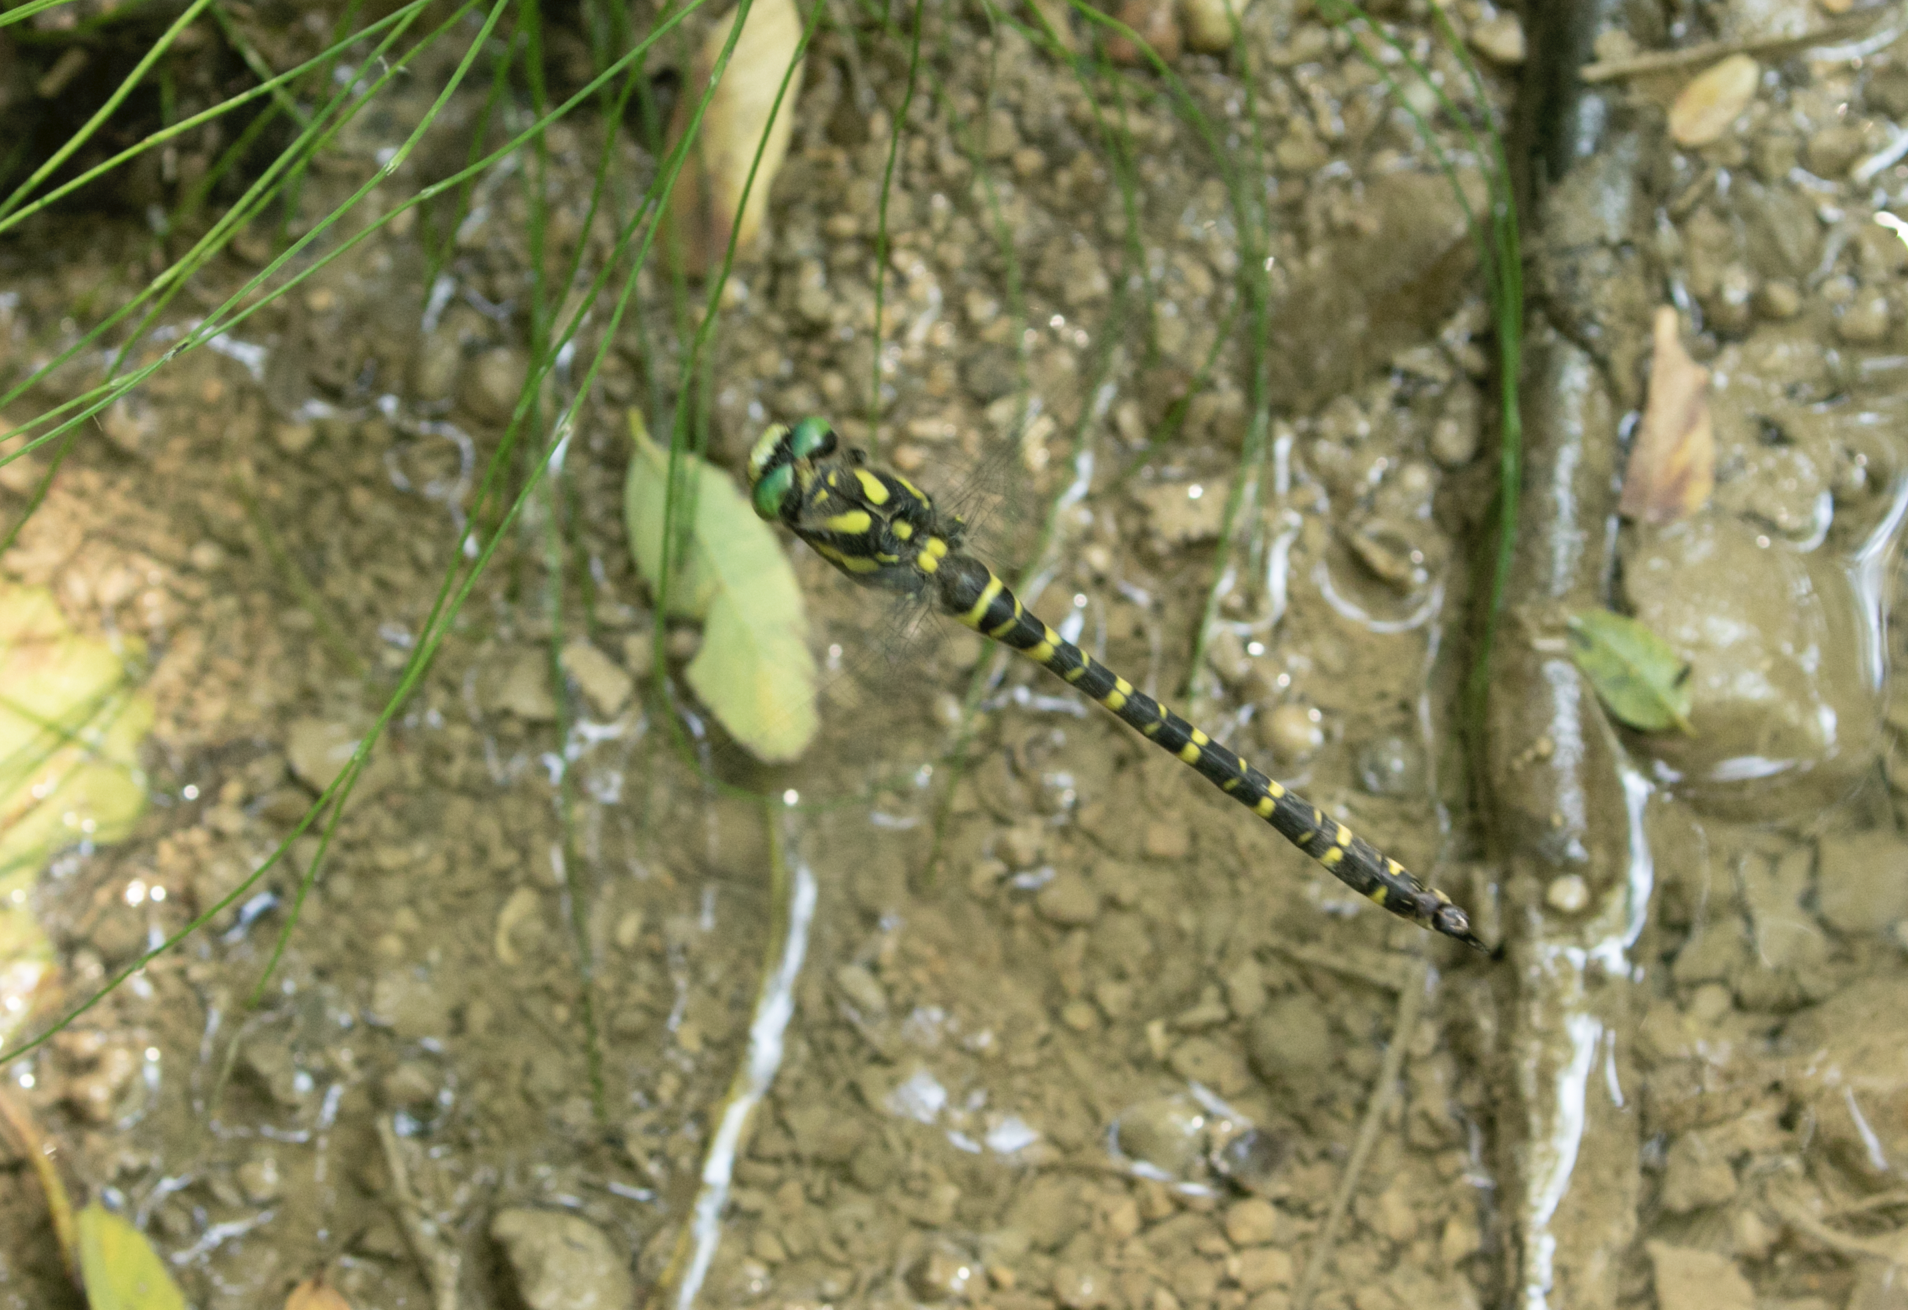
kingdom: Animalia
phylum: Arthropoda
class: Insecta
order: Odonata
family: Cordulegastridae
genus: Cordulegaster
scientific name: Cordulegaster boltonii
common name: Golden-ringed dragonfly
